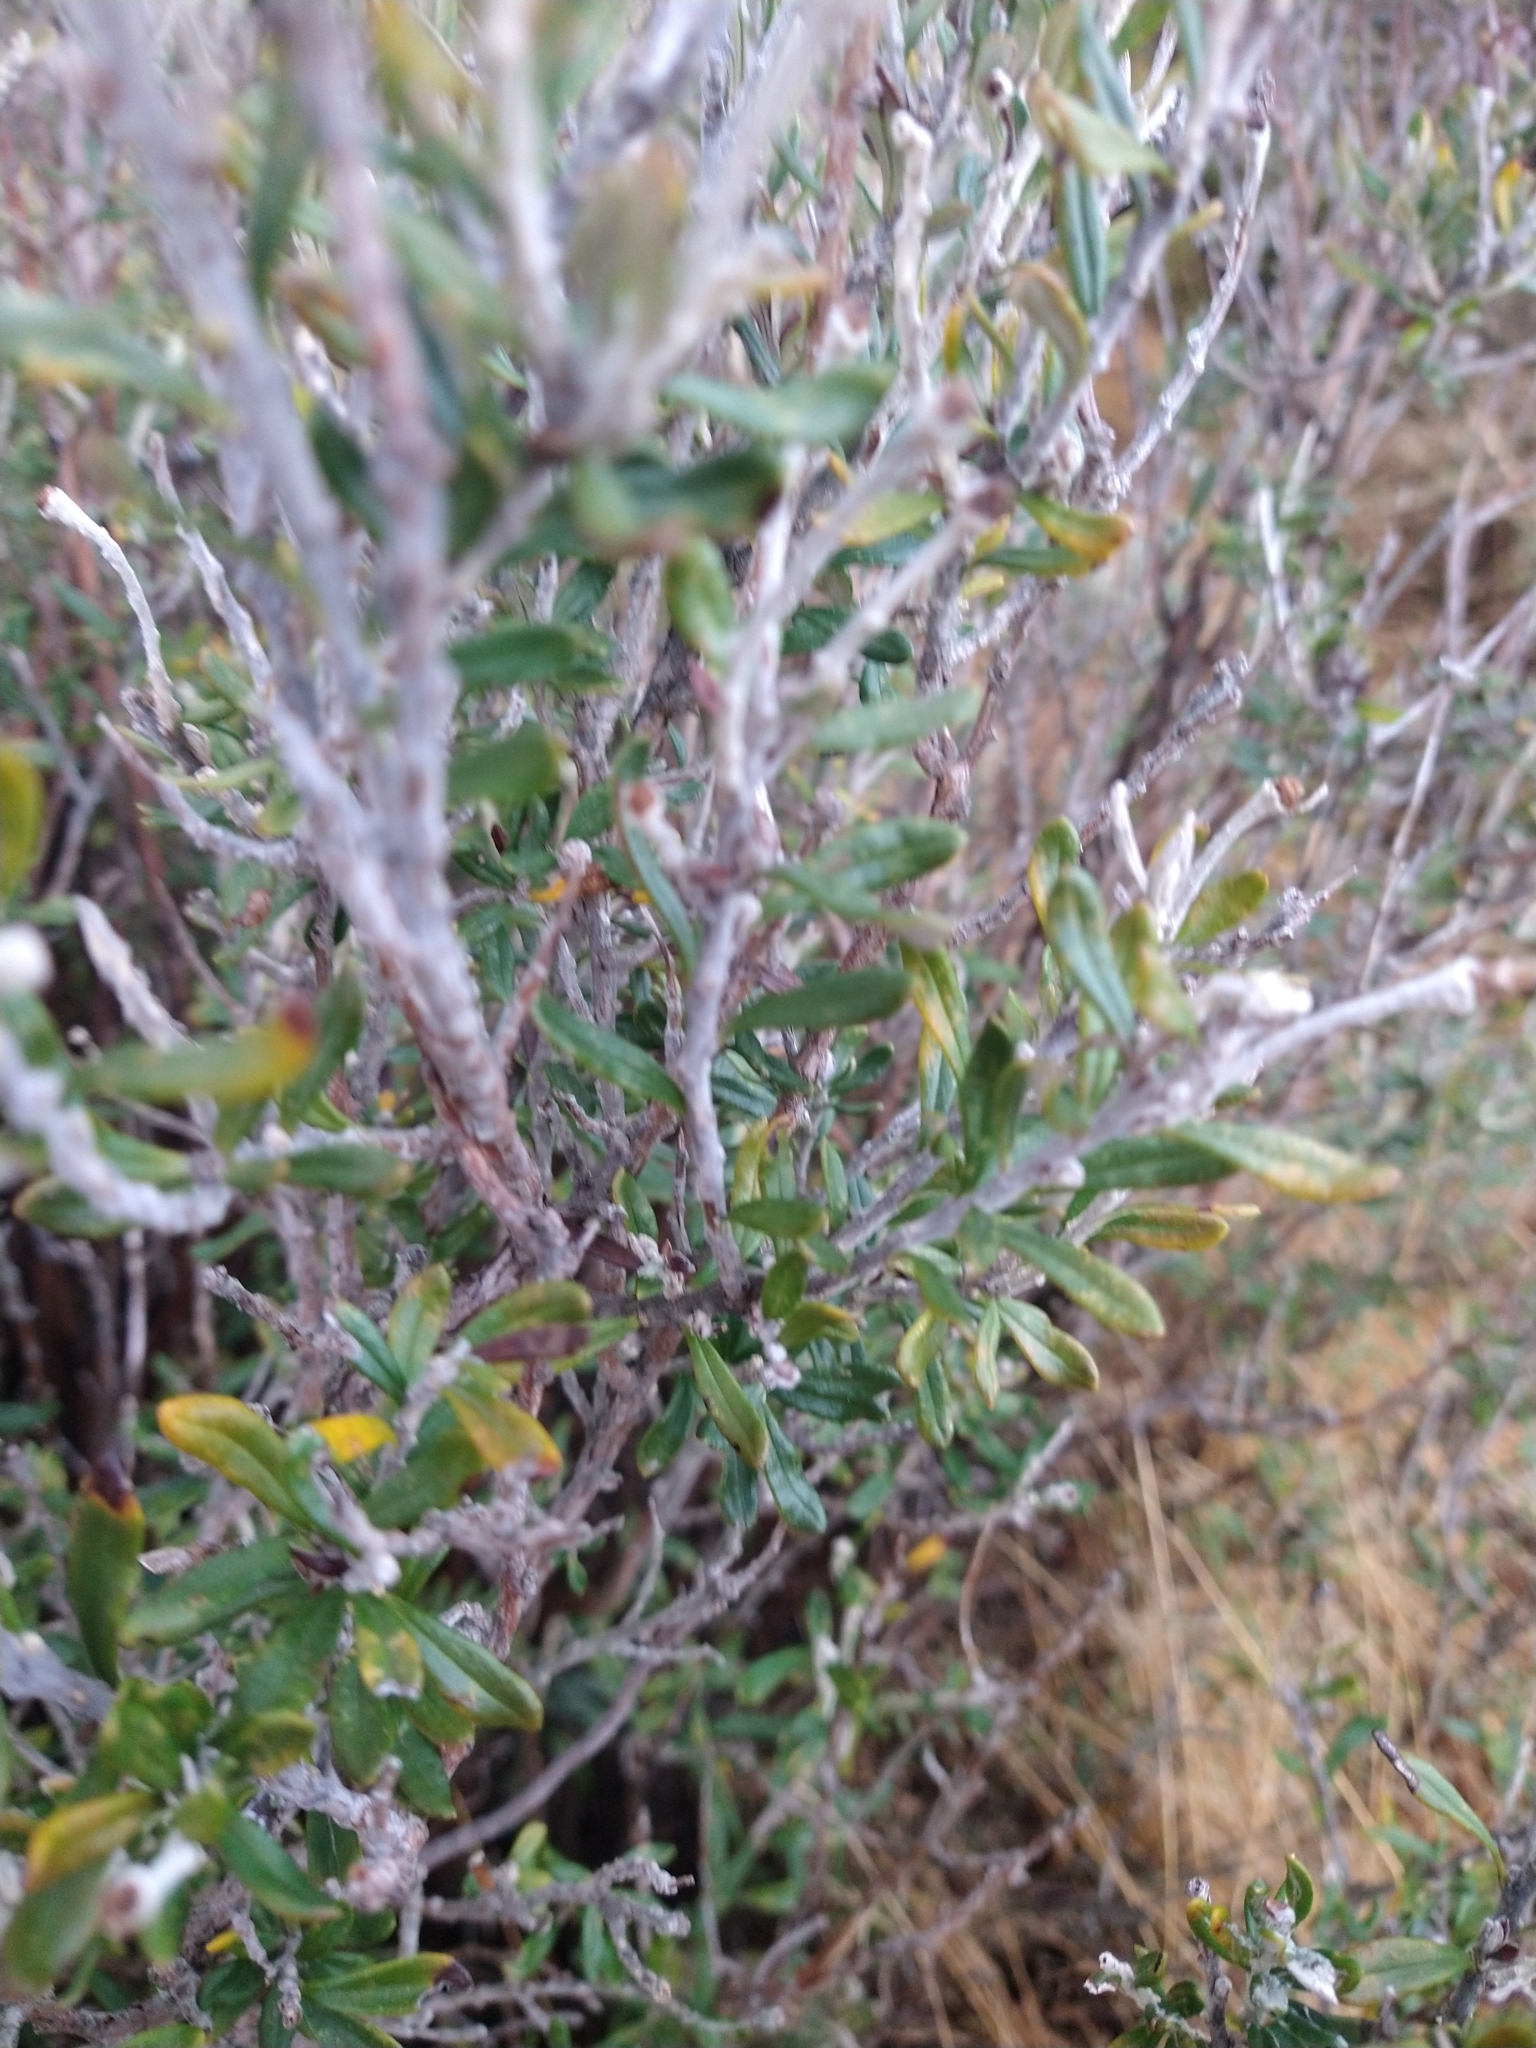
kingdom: Plantae
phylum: Tracheophyta
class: Magnoliopsida
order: Asterales
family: Asteraceae
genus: Chiliotrichum
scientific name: Chiliotrichum diffusum
